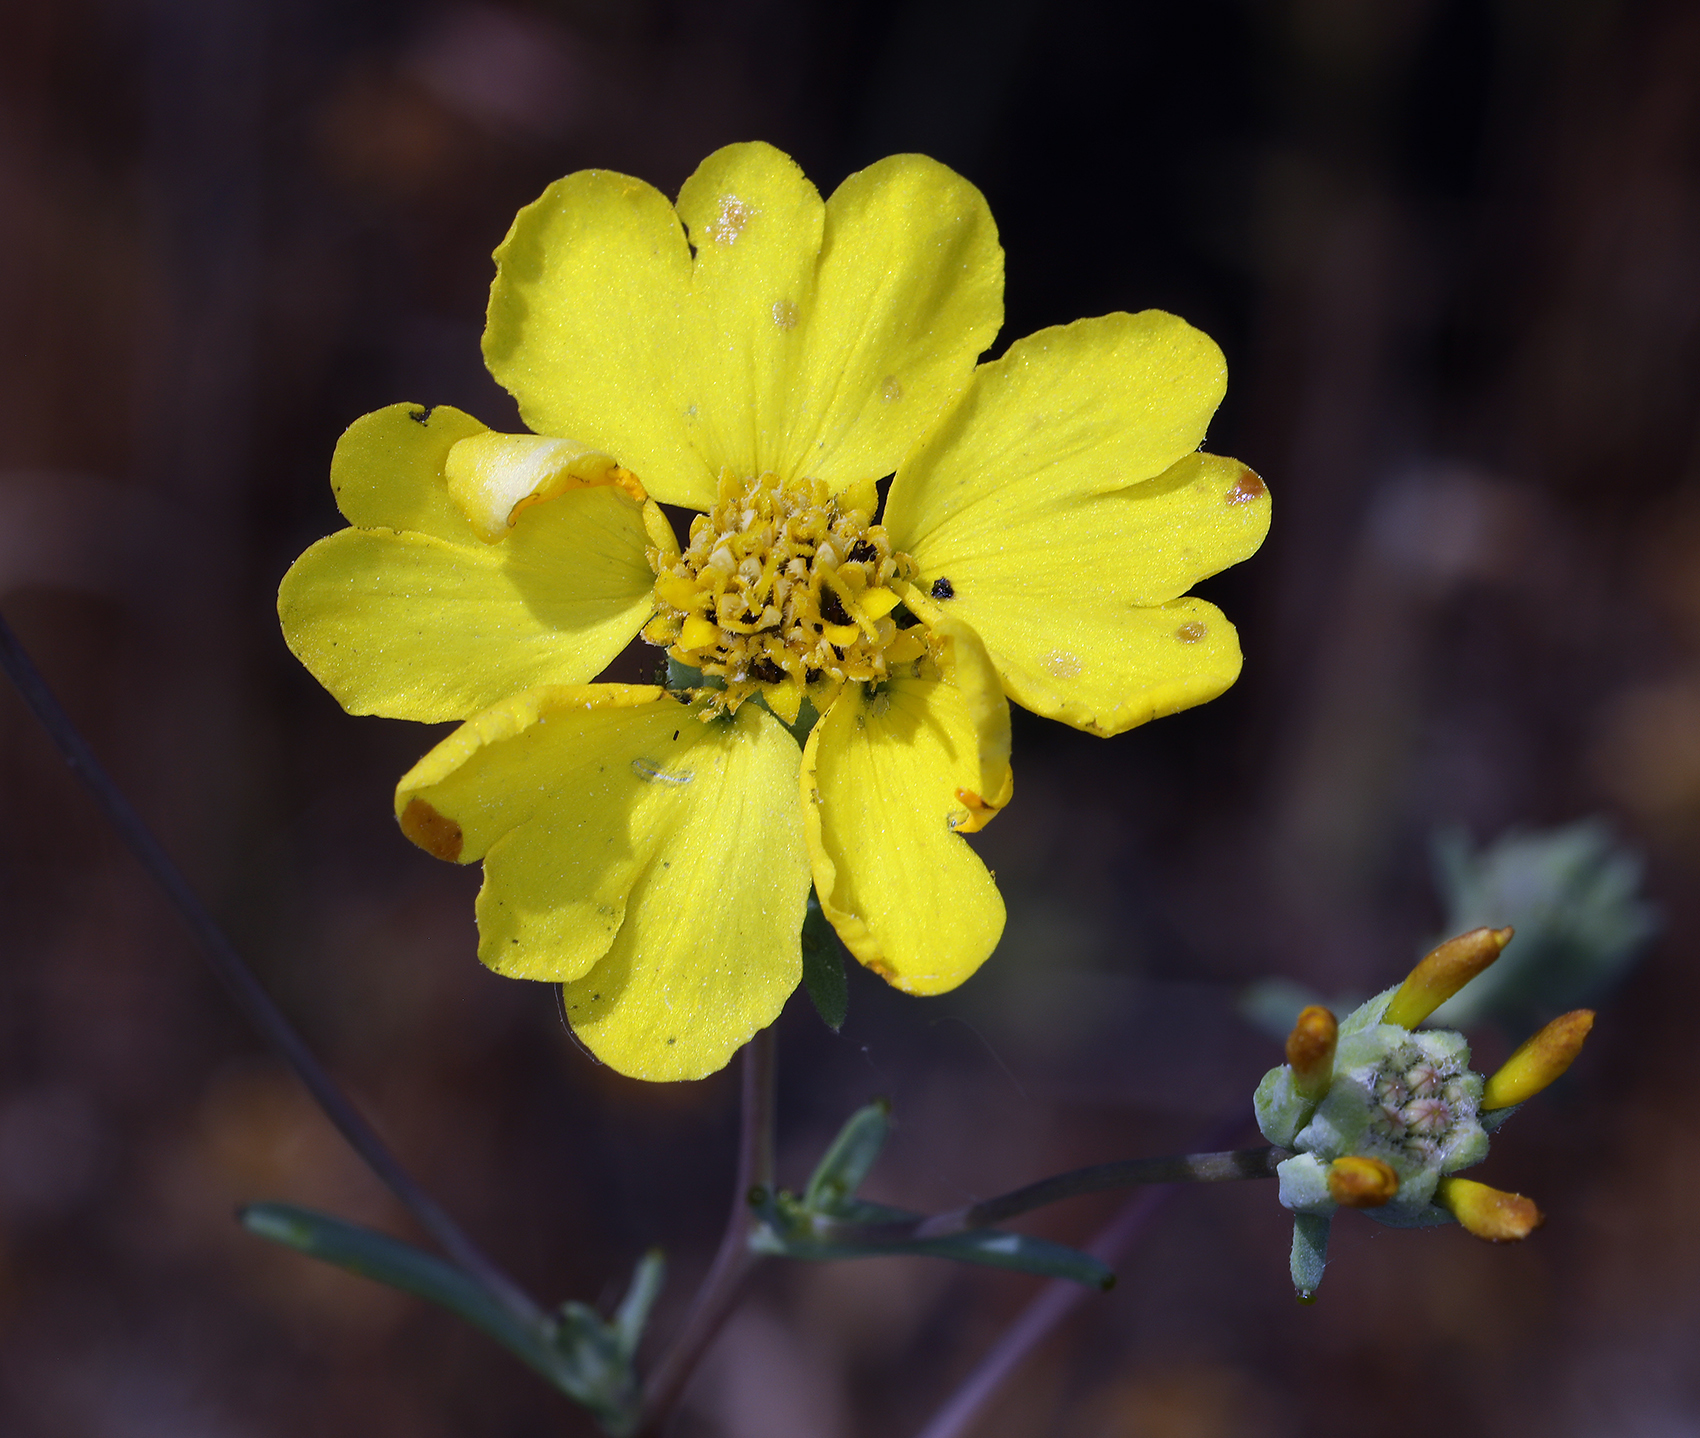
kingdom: Plantae
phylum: Tracheophyta
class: Magnoliopsida
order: Asterales
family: Asteraceae
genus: Calycadenia
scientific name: Calycadenia truncata
